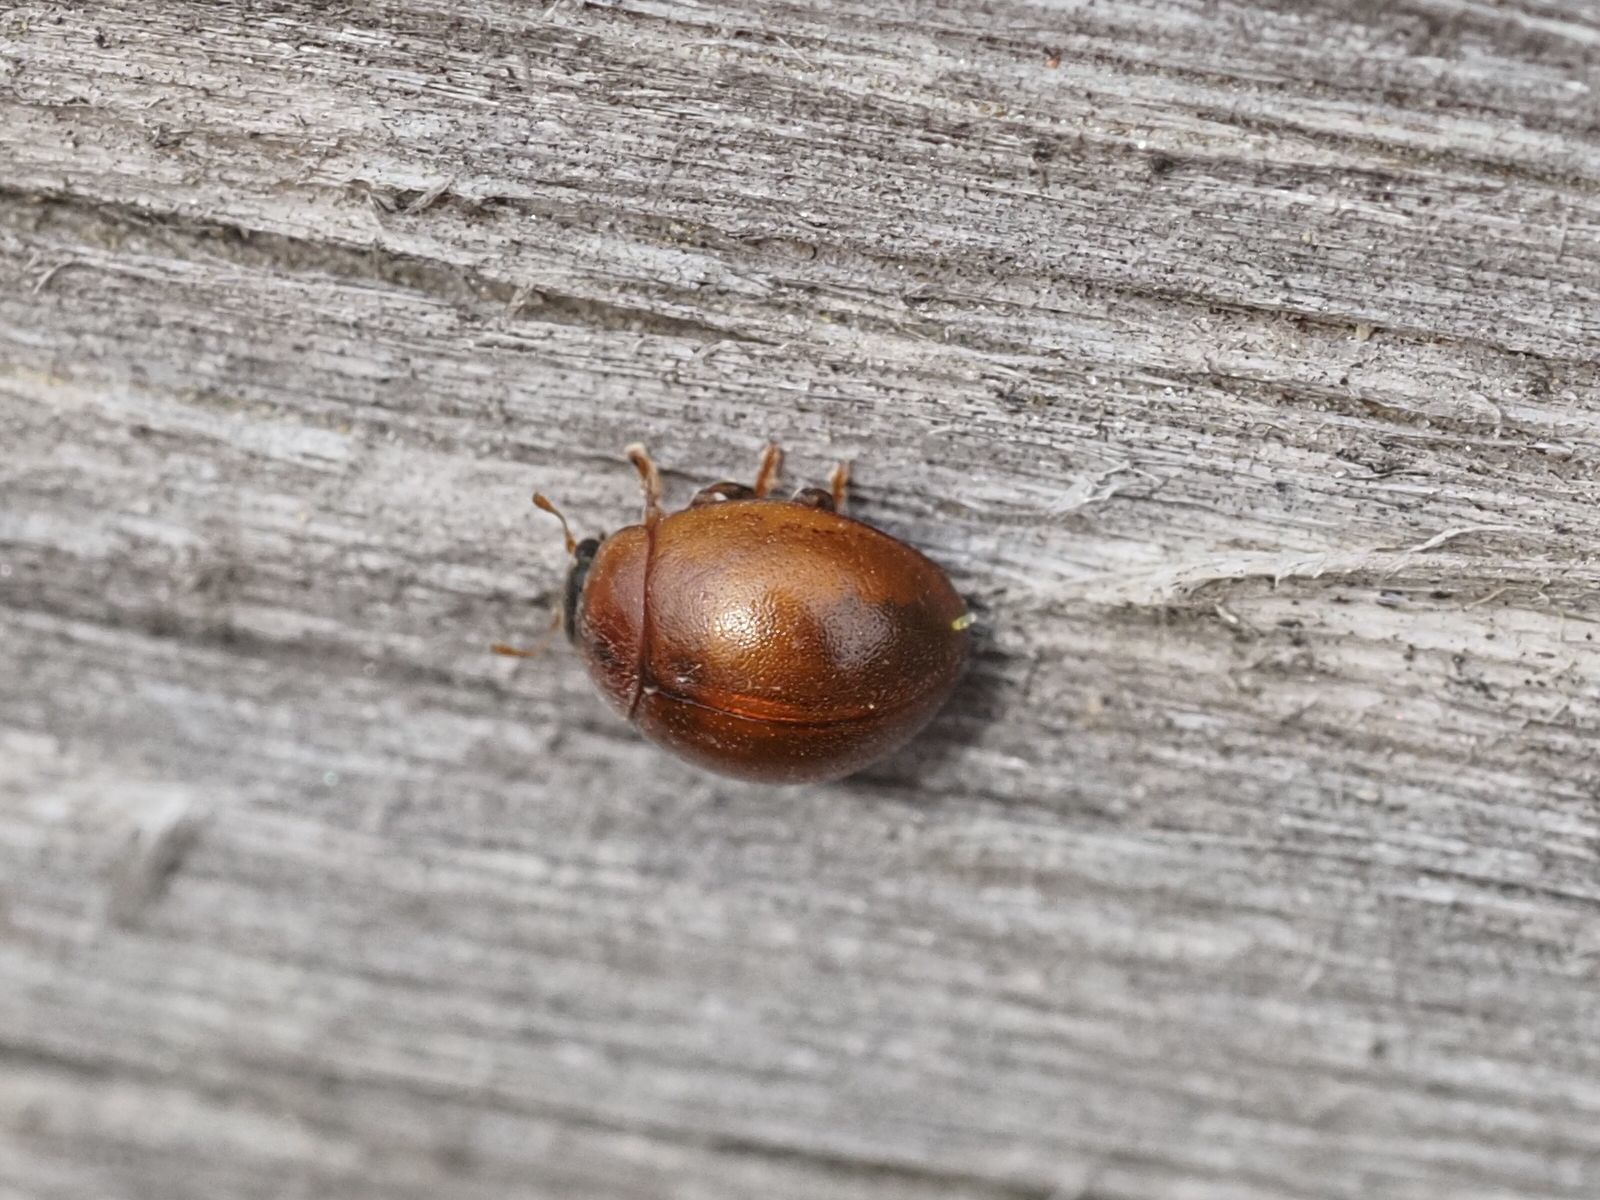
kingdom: Animalia
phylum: Arthropoda
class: Insecta
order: Coleoptera
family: Coccinellidae
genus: Cynegetis
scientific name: Cynegetis impunctata
